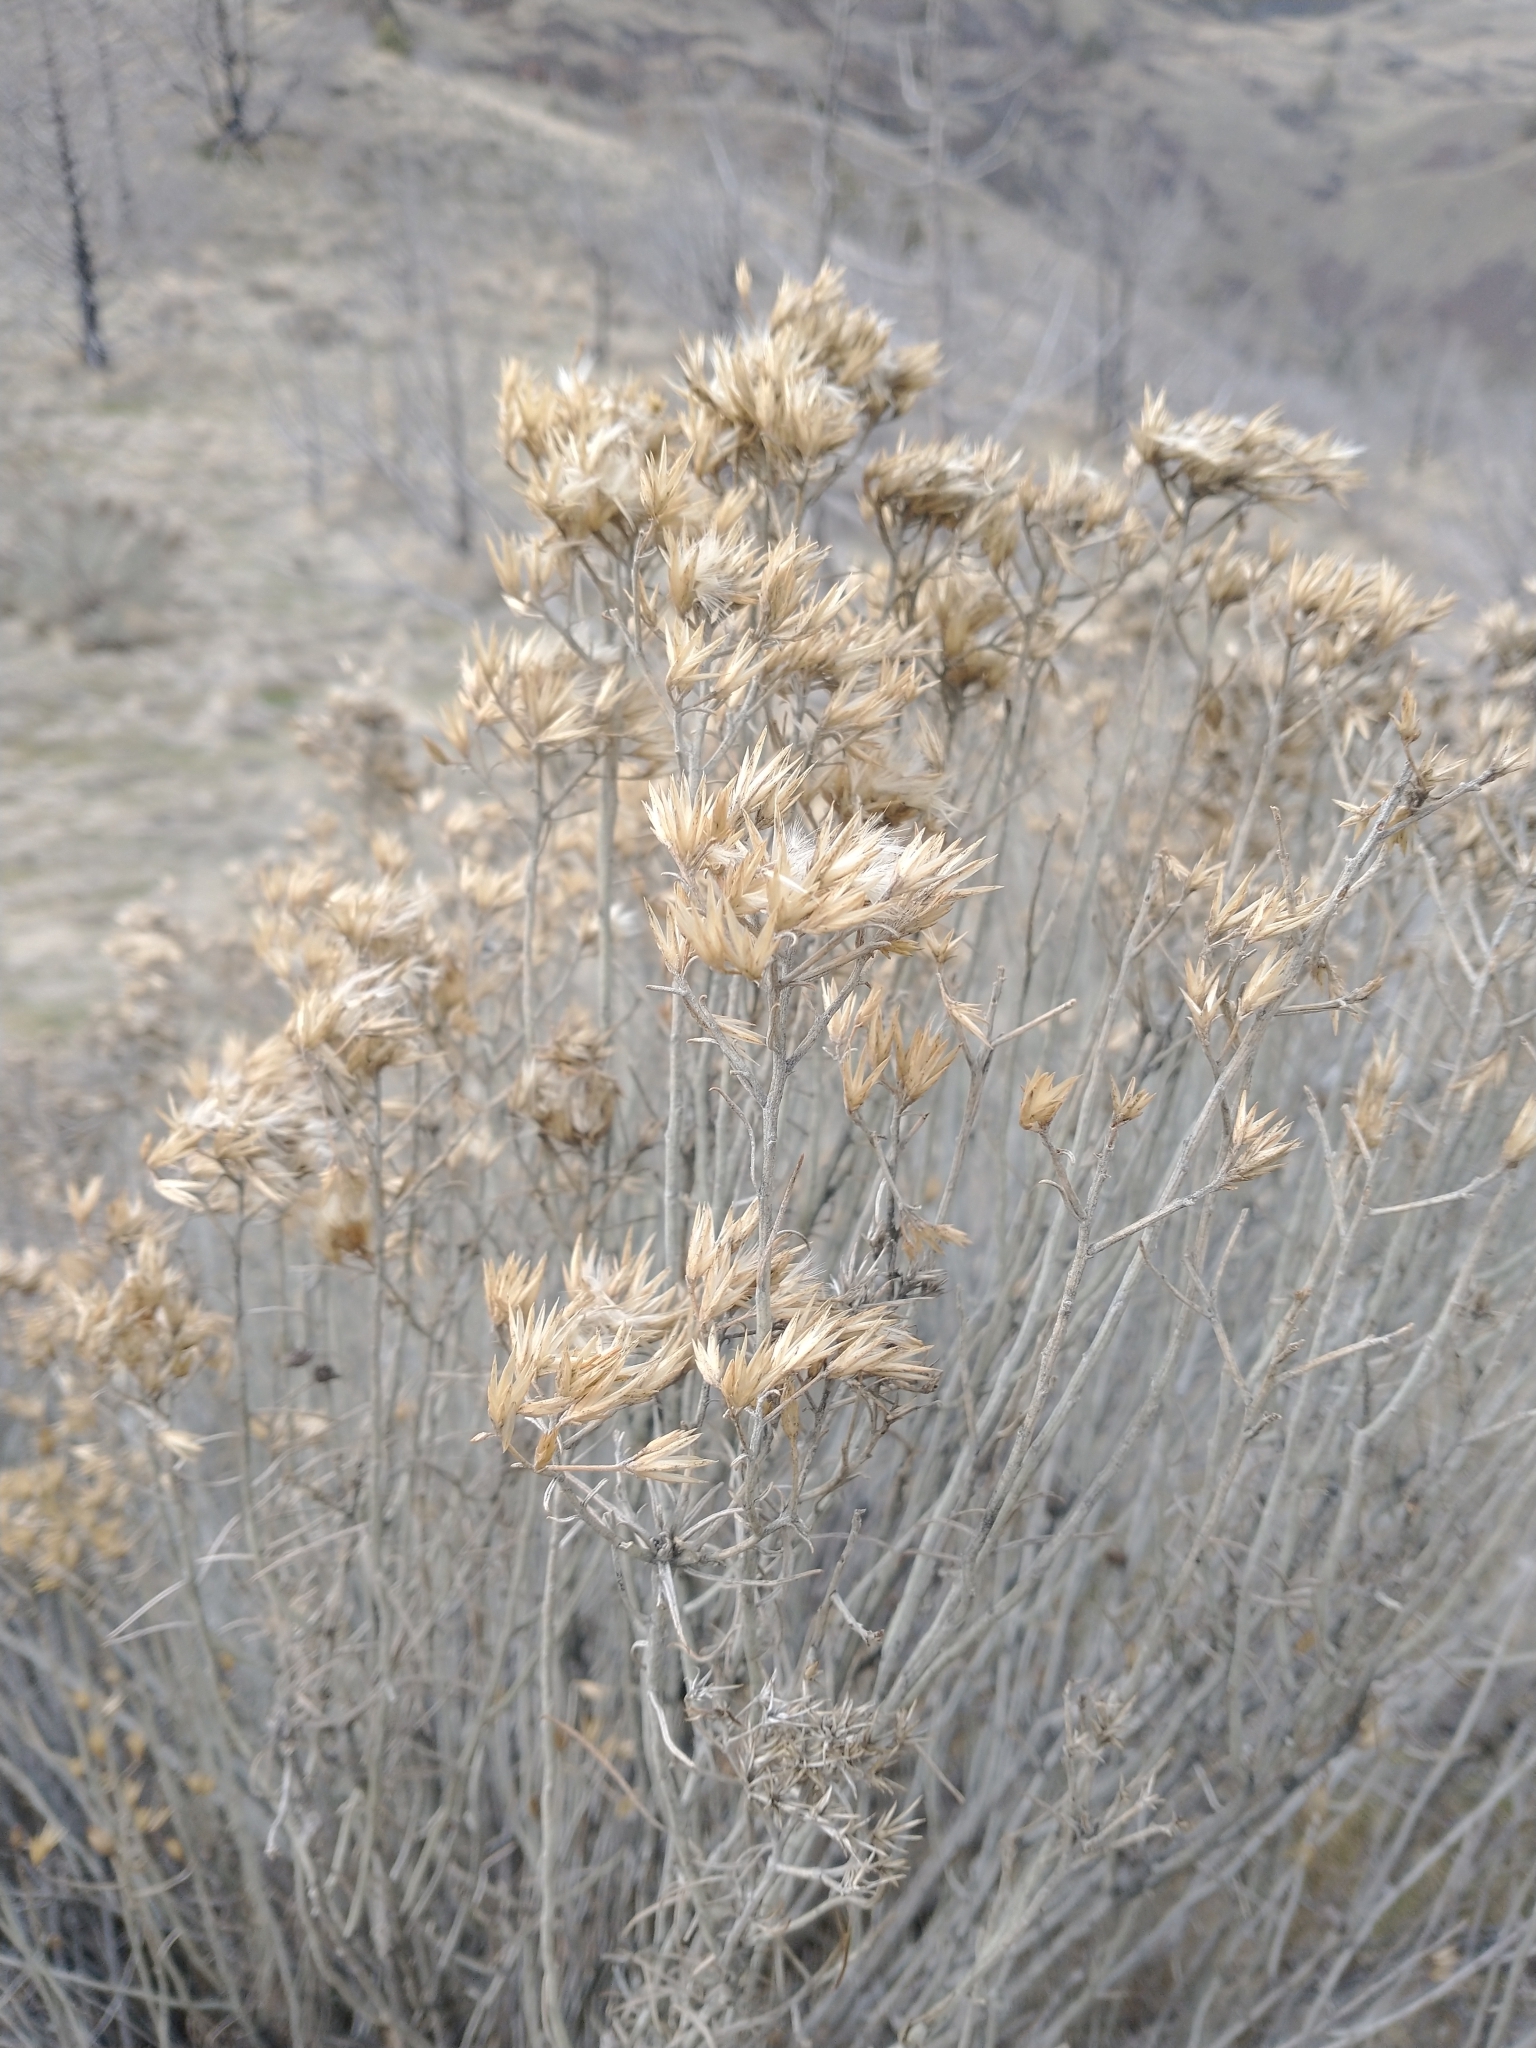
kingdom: Plantae
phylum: Tracheophyta
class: Magnoliopsida
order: Asterales
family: Asteraceae
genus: Ericameria
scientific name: Ericameria nauseosa
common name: Rubber rabbitbrush
